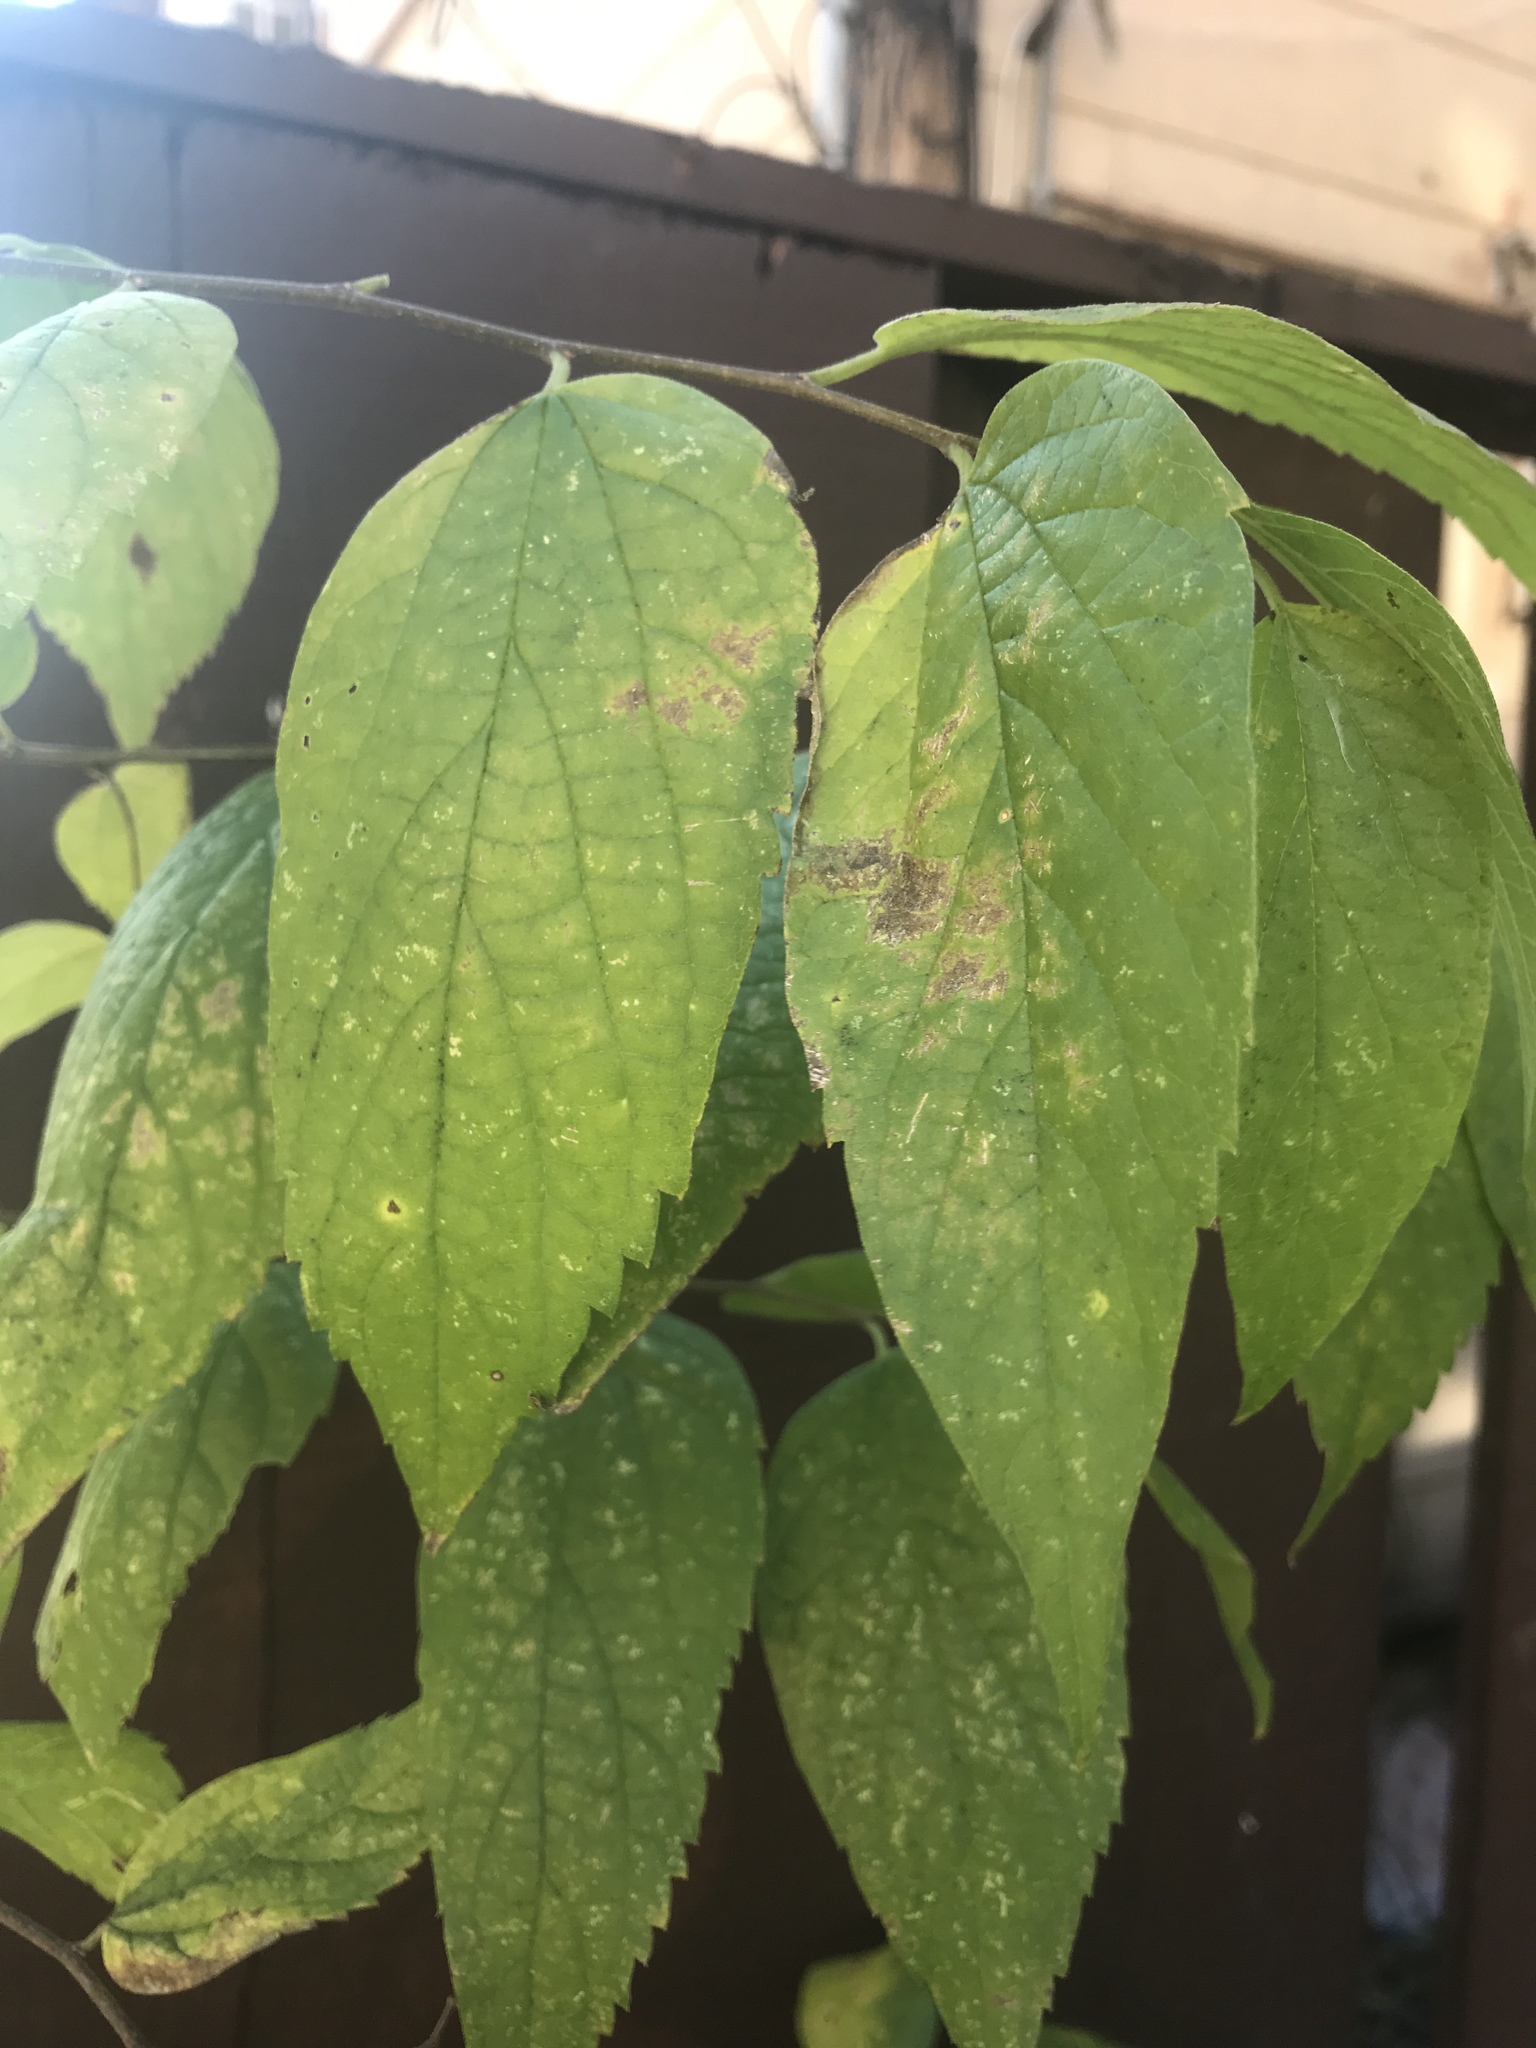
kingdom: Plantae
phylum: Tracheophyta
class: Magnoliopsida
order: Rosales
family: Cannabaceae
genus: Celtis
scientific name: Celtis laevigata
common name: Sugarberry
